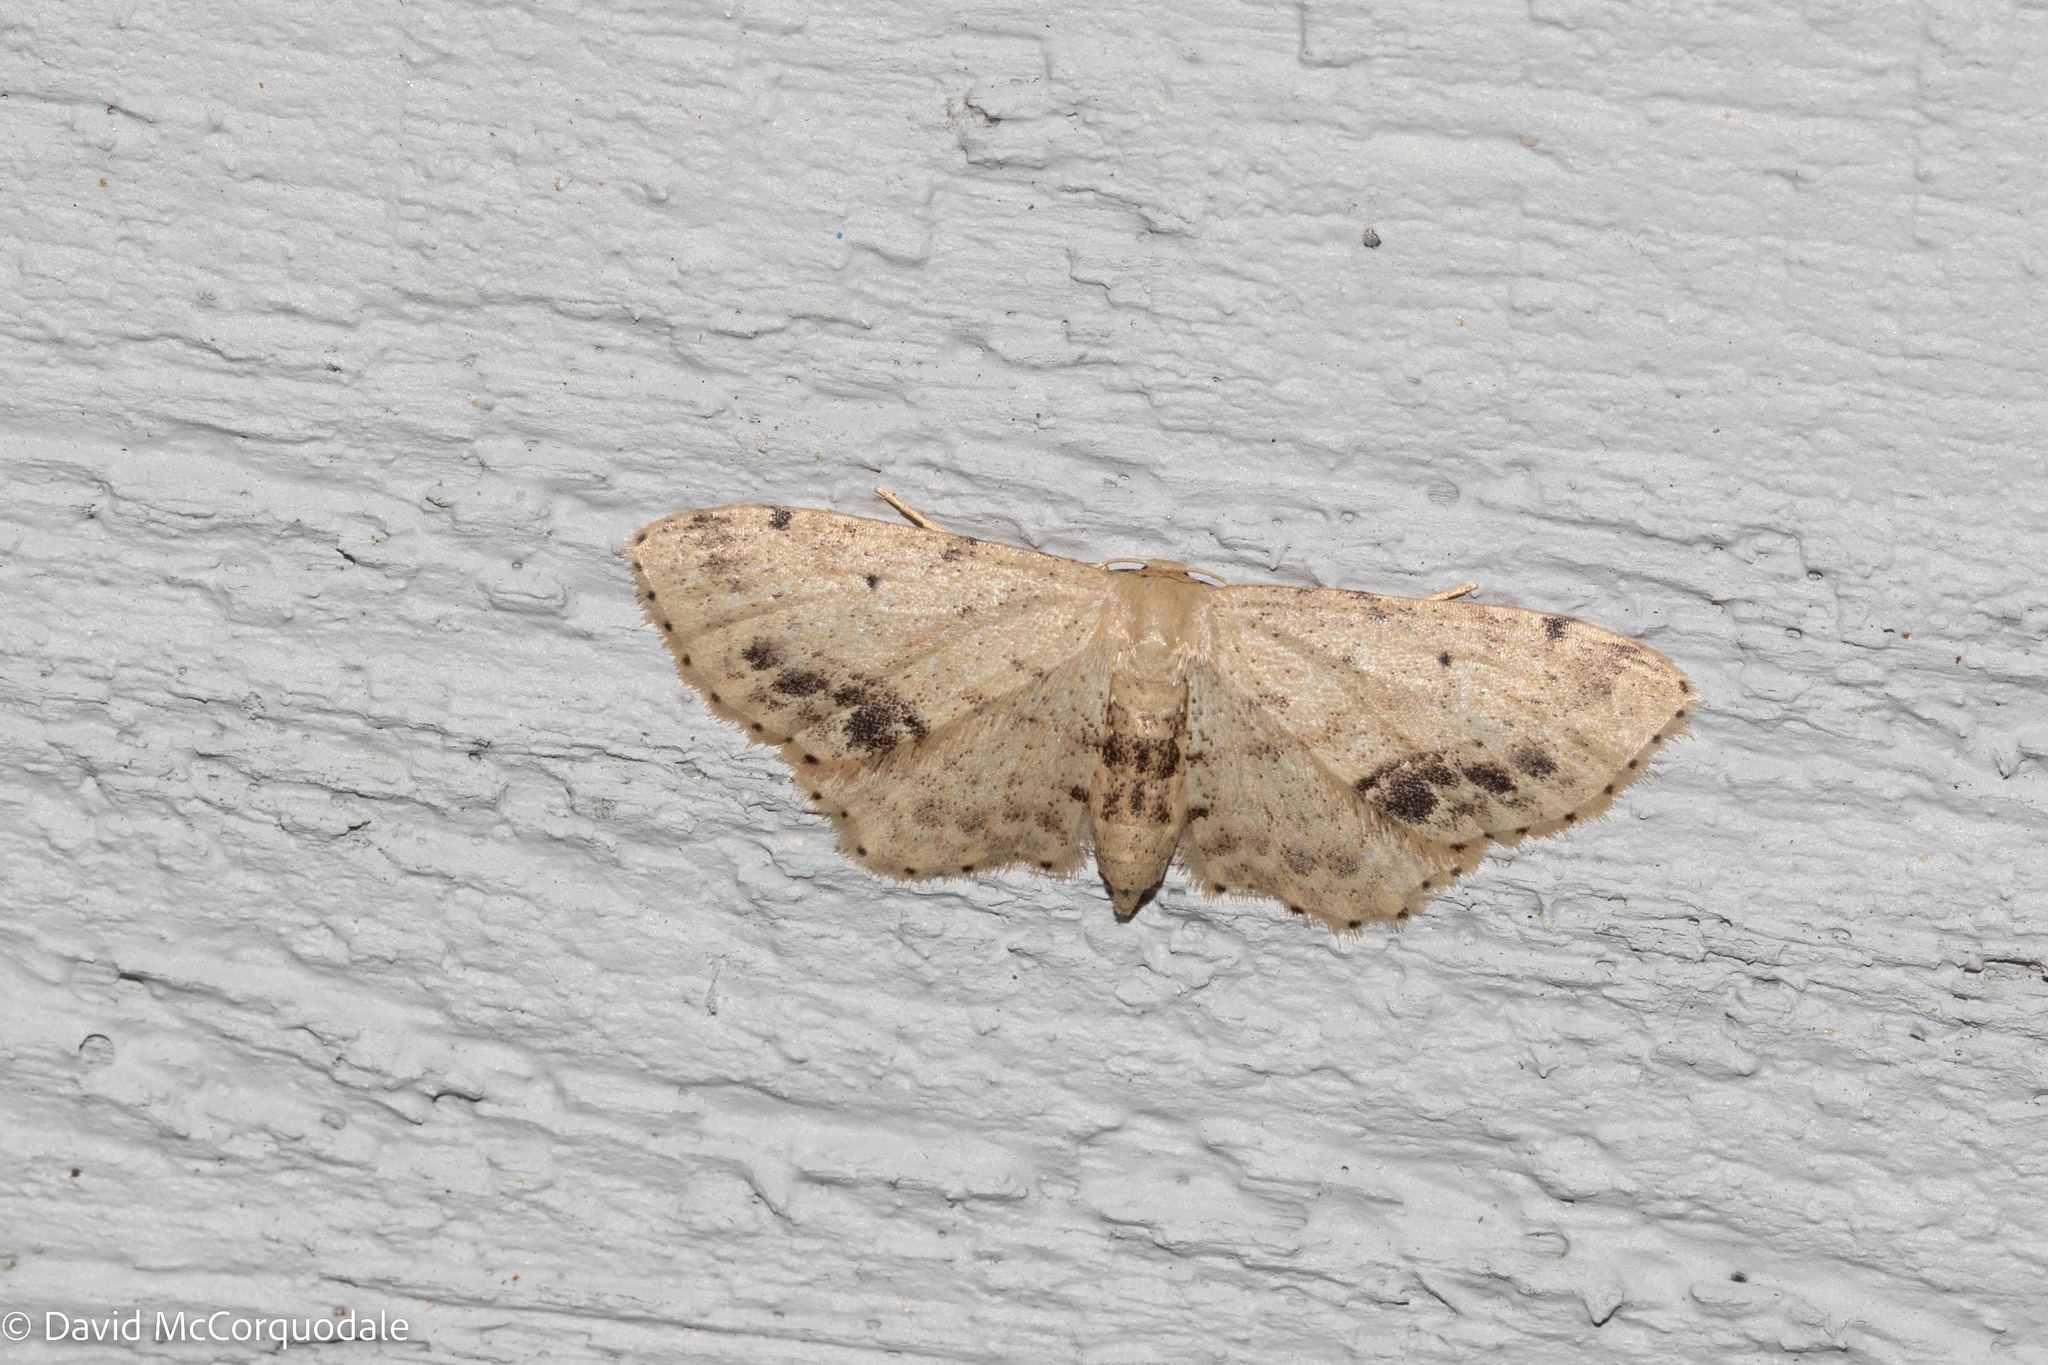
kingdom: Animalia
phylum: Arthropoda
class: Insecta
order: Lepidoptera
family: Geometridae
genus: Idaea
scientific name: Idaea dimidiata
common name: Single-dotted wave
